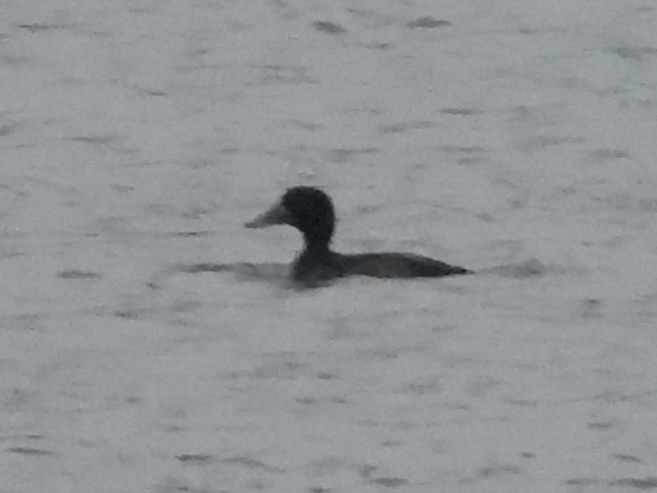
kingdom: Animalia
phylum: Chordata
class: Aves
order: Anseriformes
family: Anatidae
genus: Aythya
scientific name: Aythya fuligula
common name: Tufted duck
